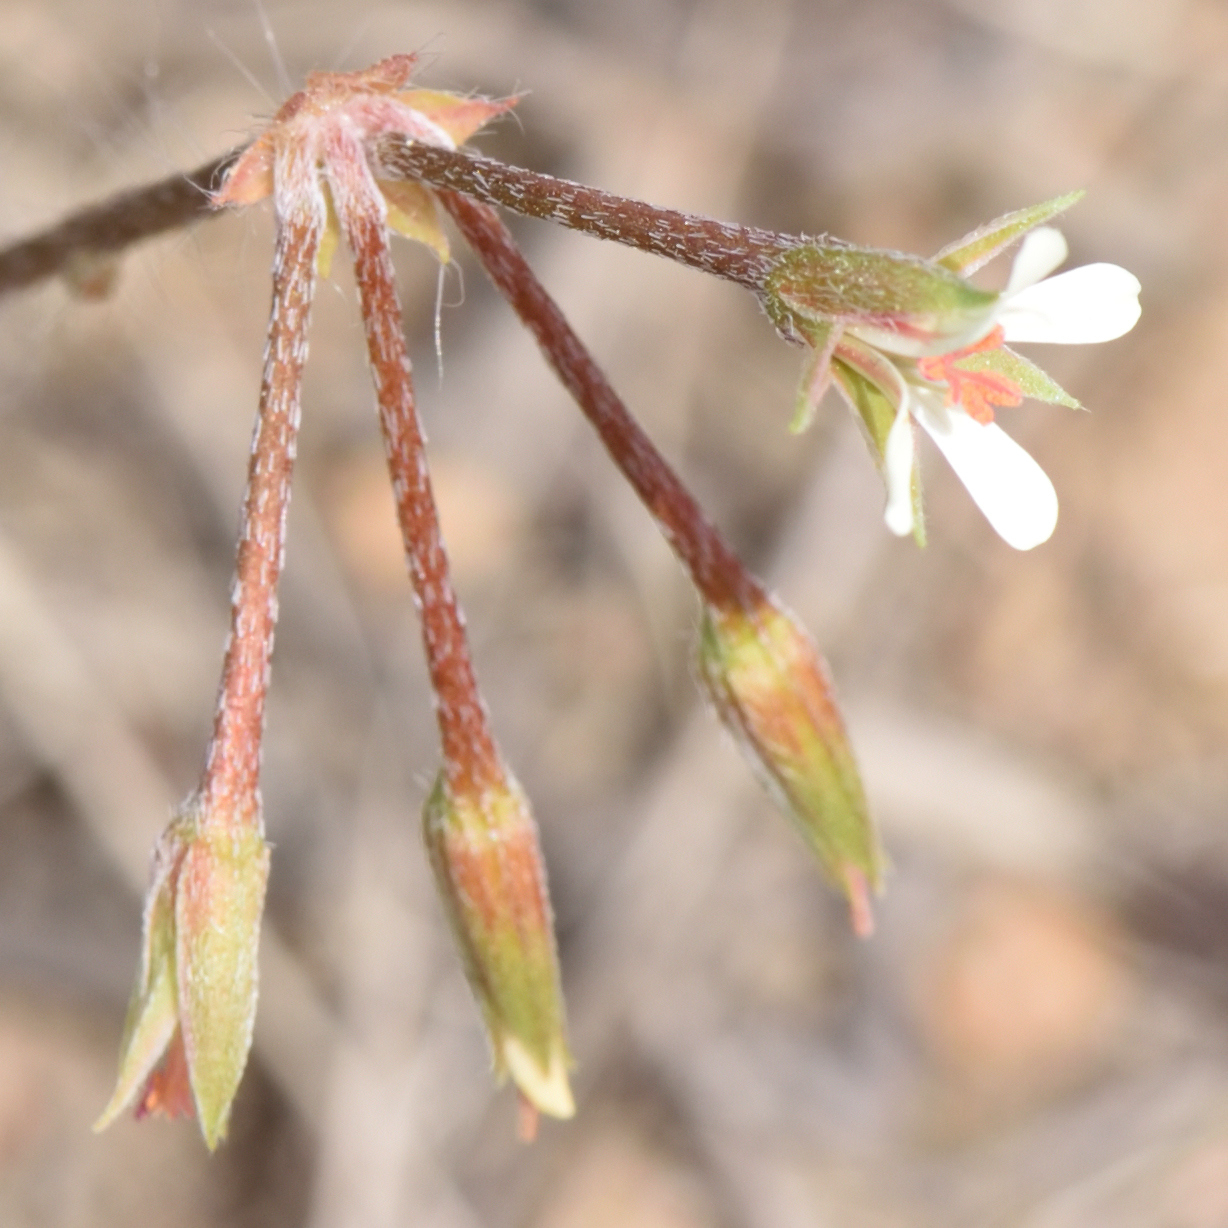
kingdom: Plantae
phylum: Tracheophyta
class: Magnoliopsida
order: Geraniales
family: Geraniaceae
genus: Pelargonium
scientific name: Pelargonium alchemilloides
